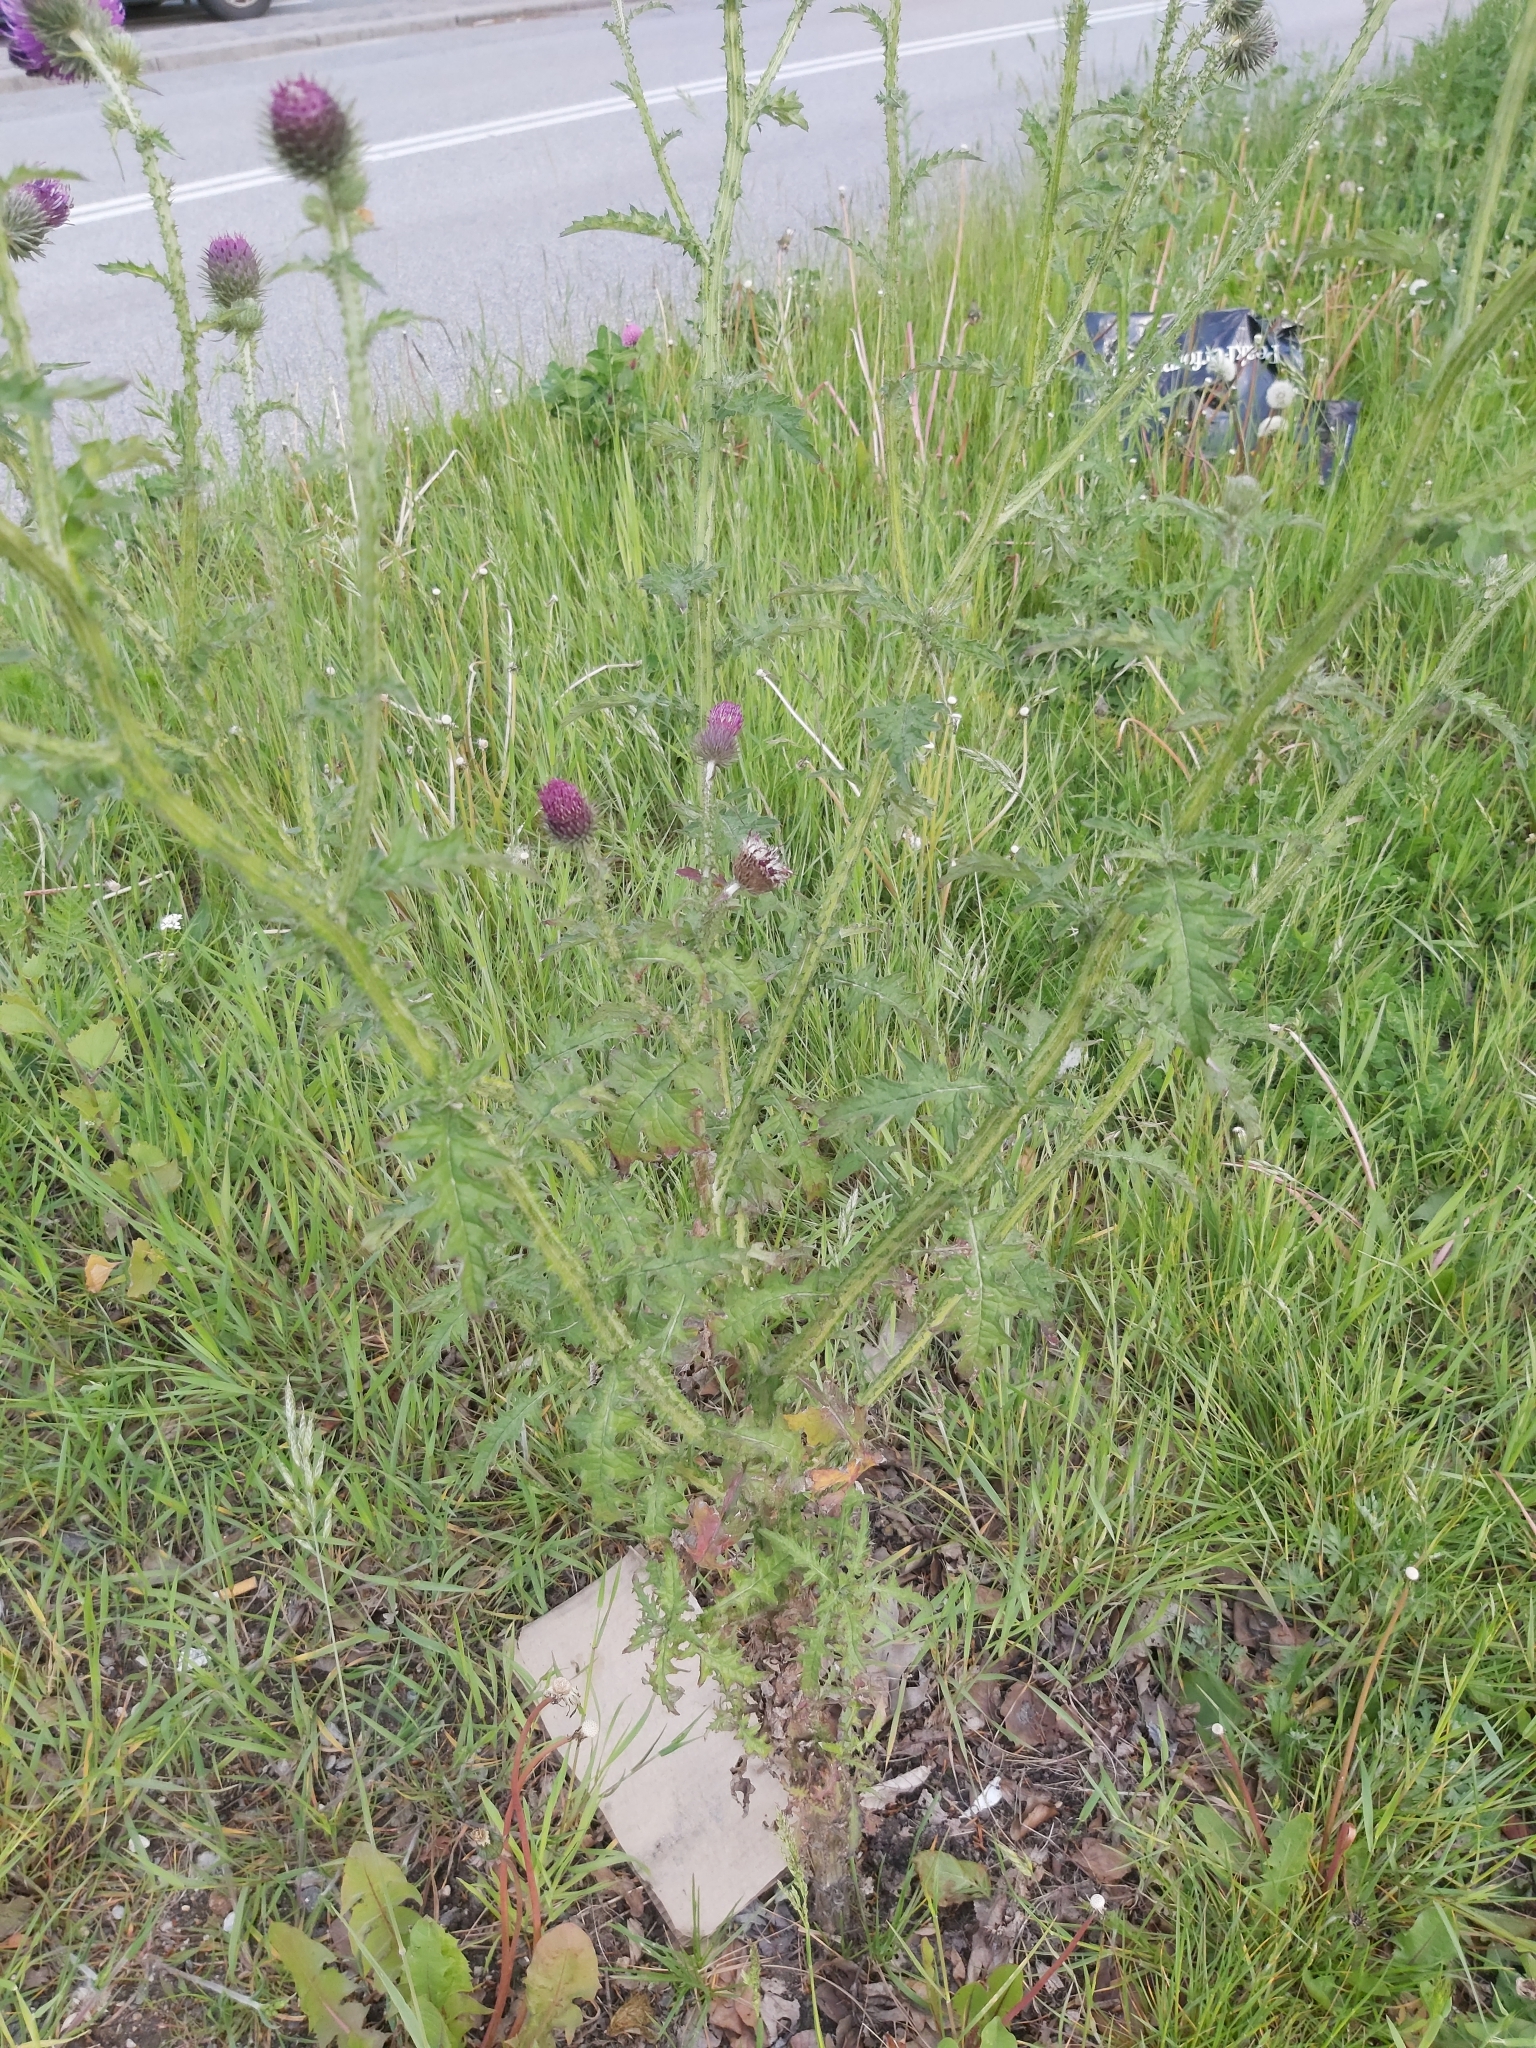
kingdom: Plantae
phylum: Tracheophyta
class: Magnoliopsida
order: Asterales
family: Asteraceae
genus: Cirsium
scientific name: Cirsium palustre
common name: Marsh thistle
